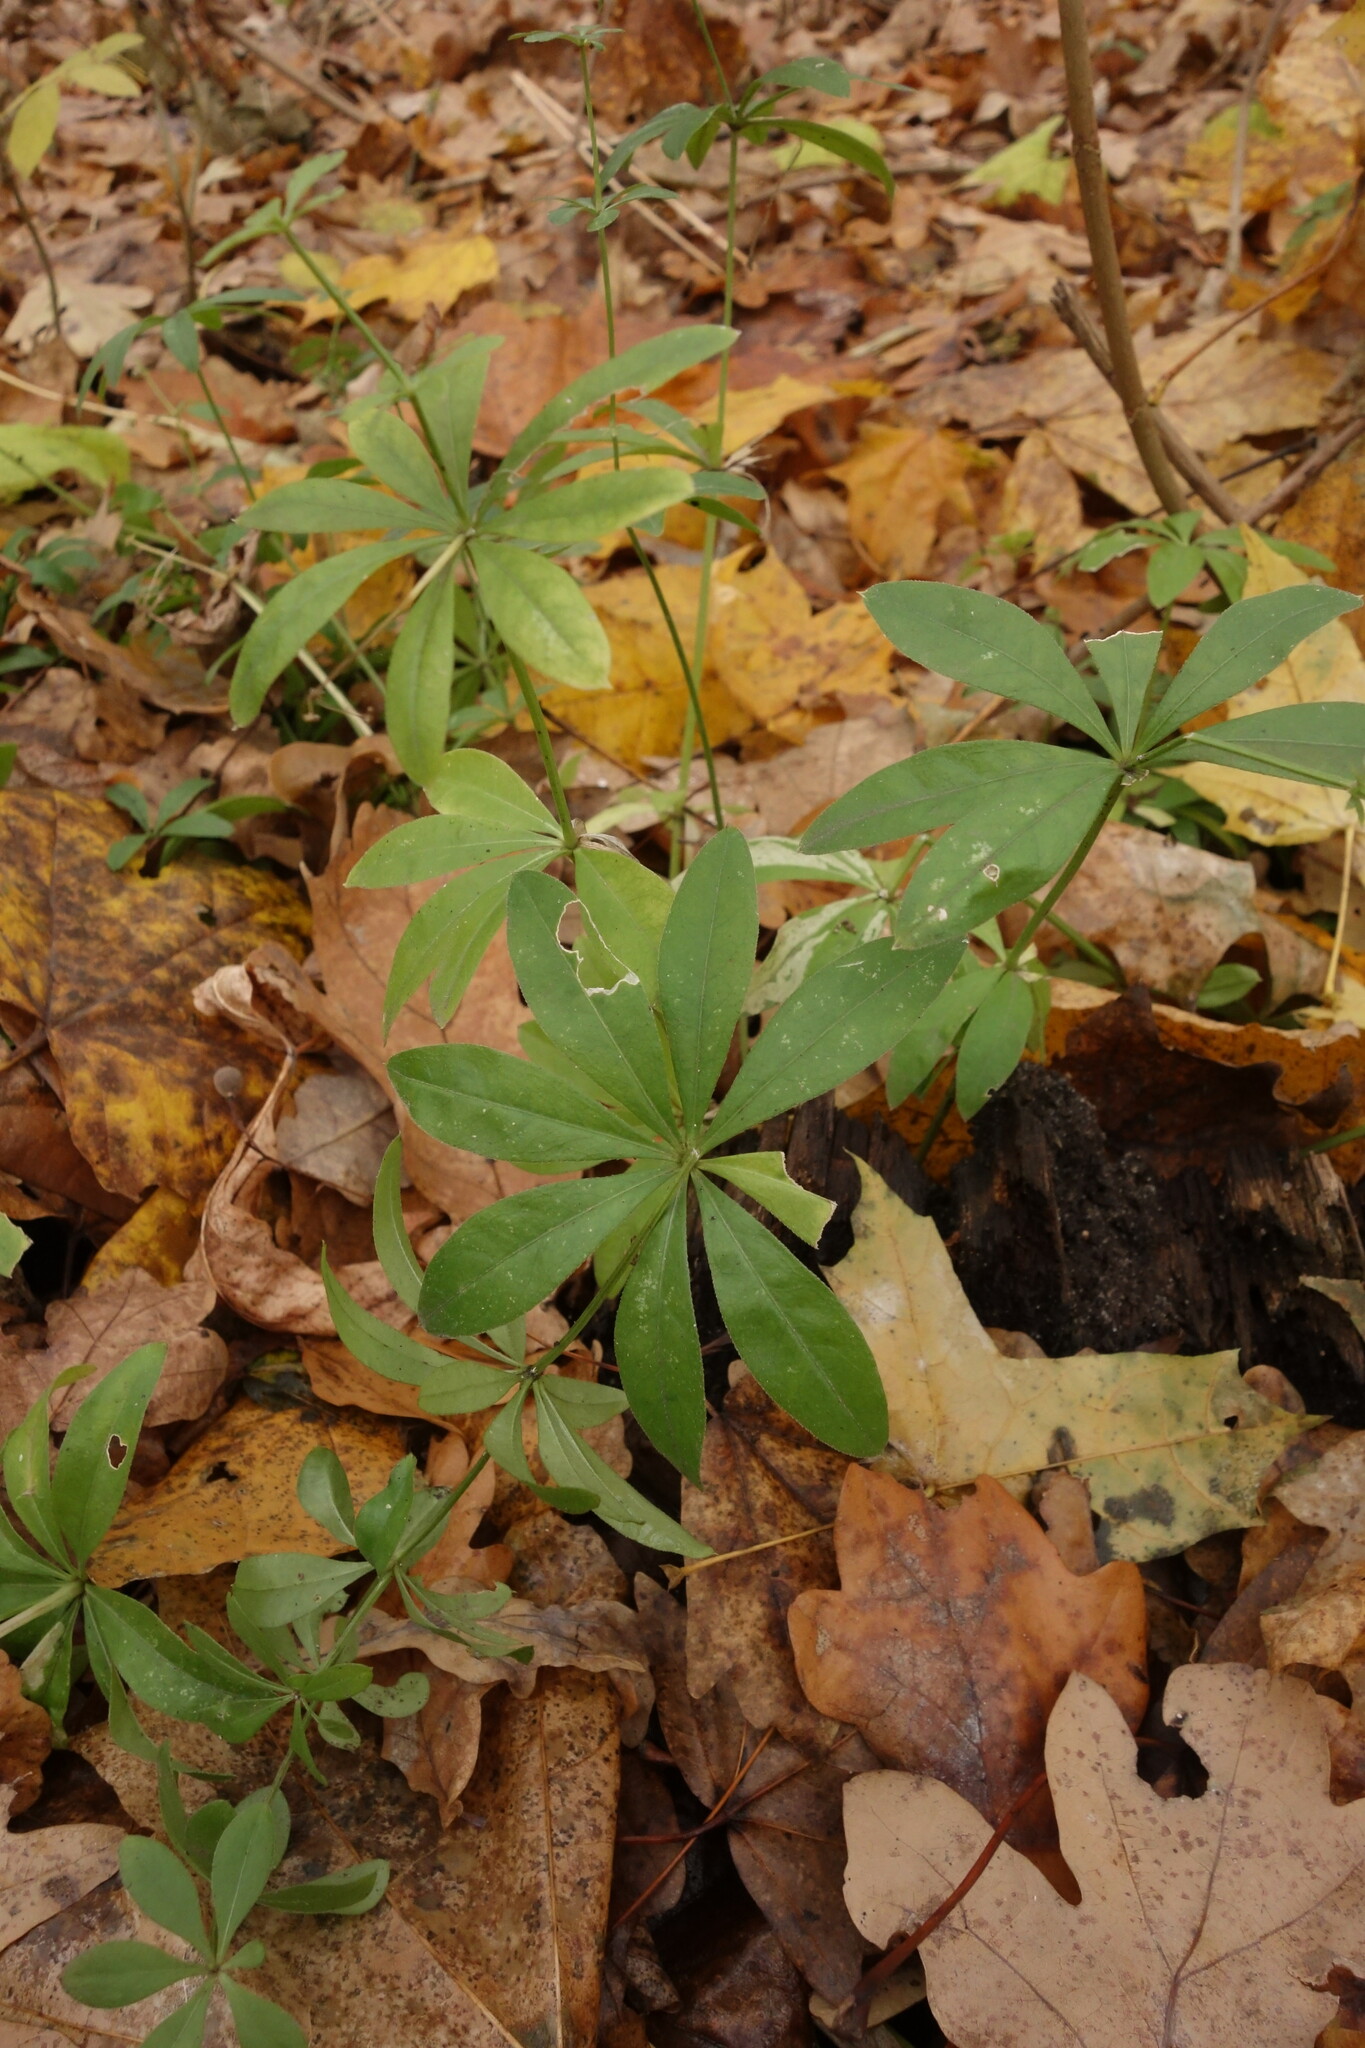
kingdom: Plantae
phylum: Tracheophyta
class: Magnoliopsida
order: Gentianales
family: Rubiaceae
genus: Galium
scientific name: Galium odoratum
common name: Sweet woodruff
